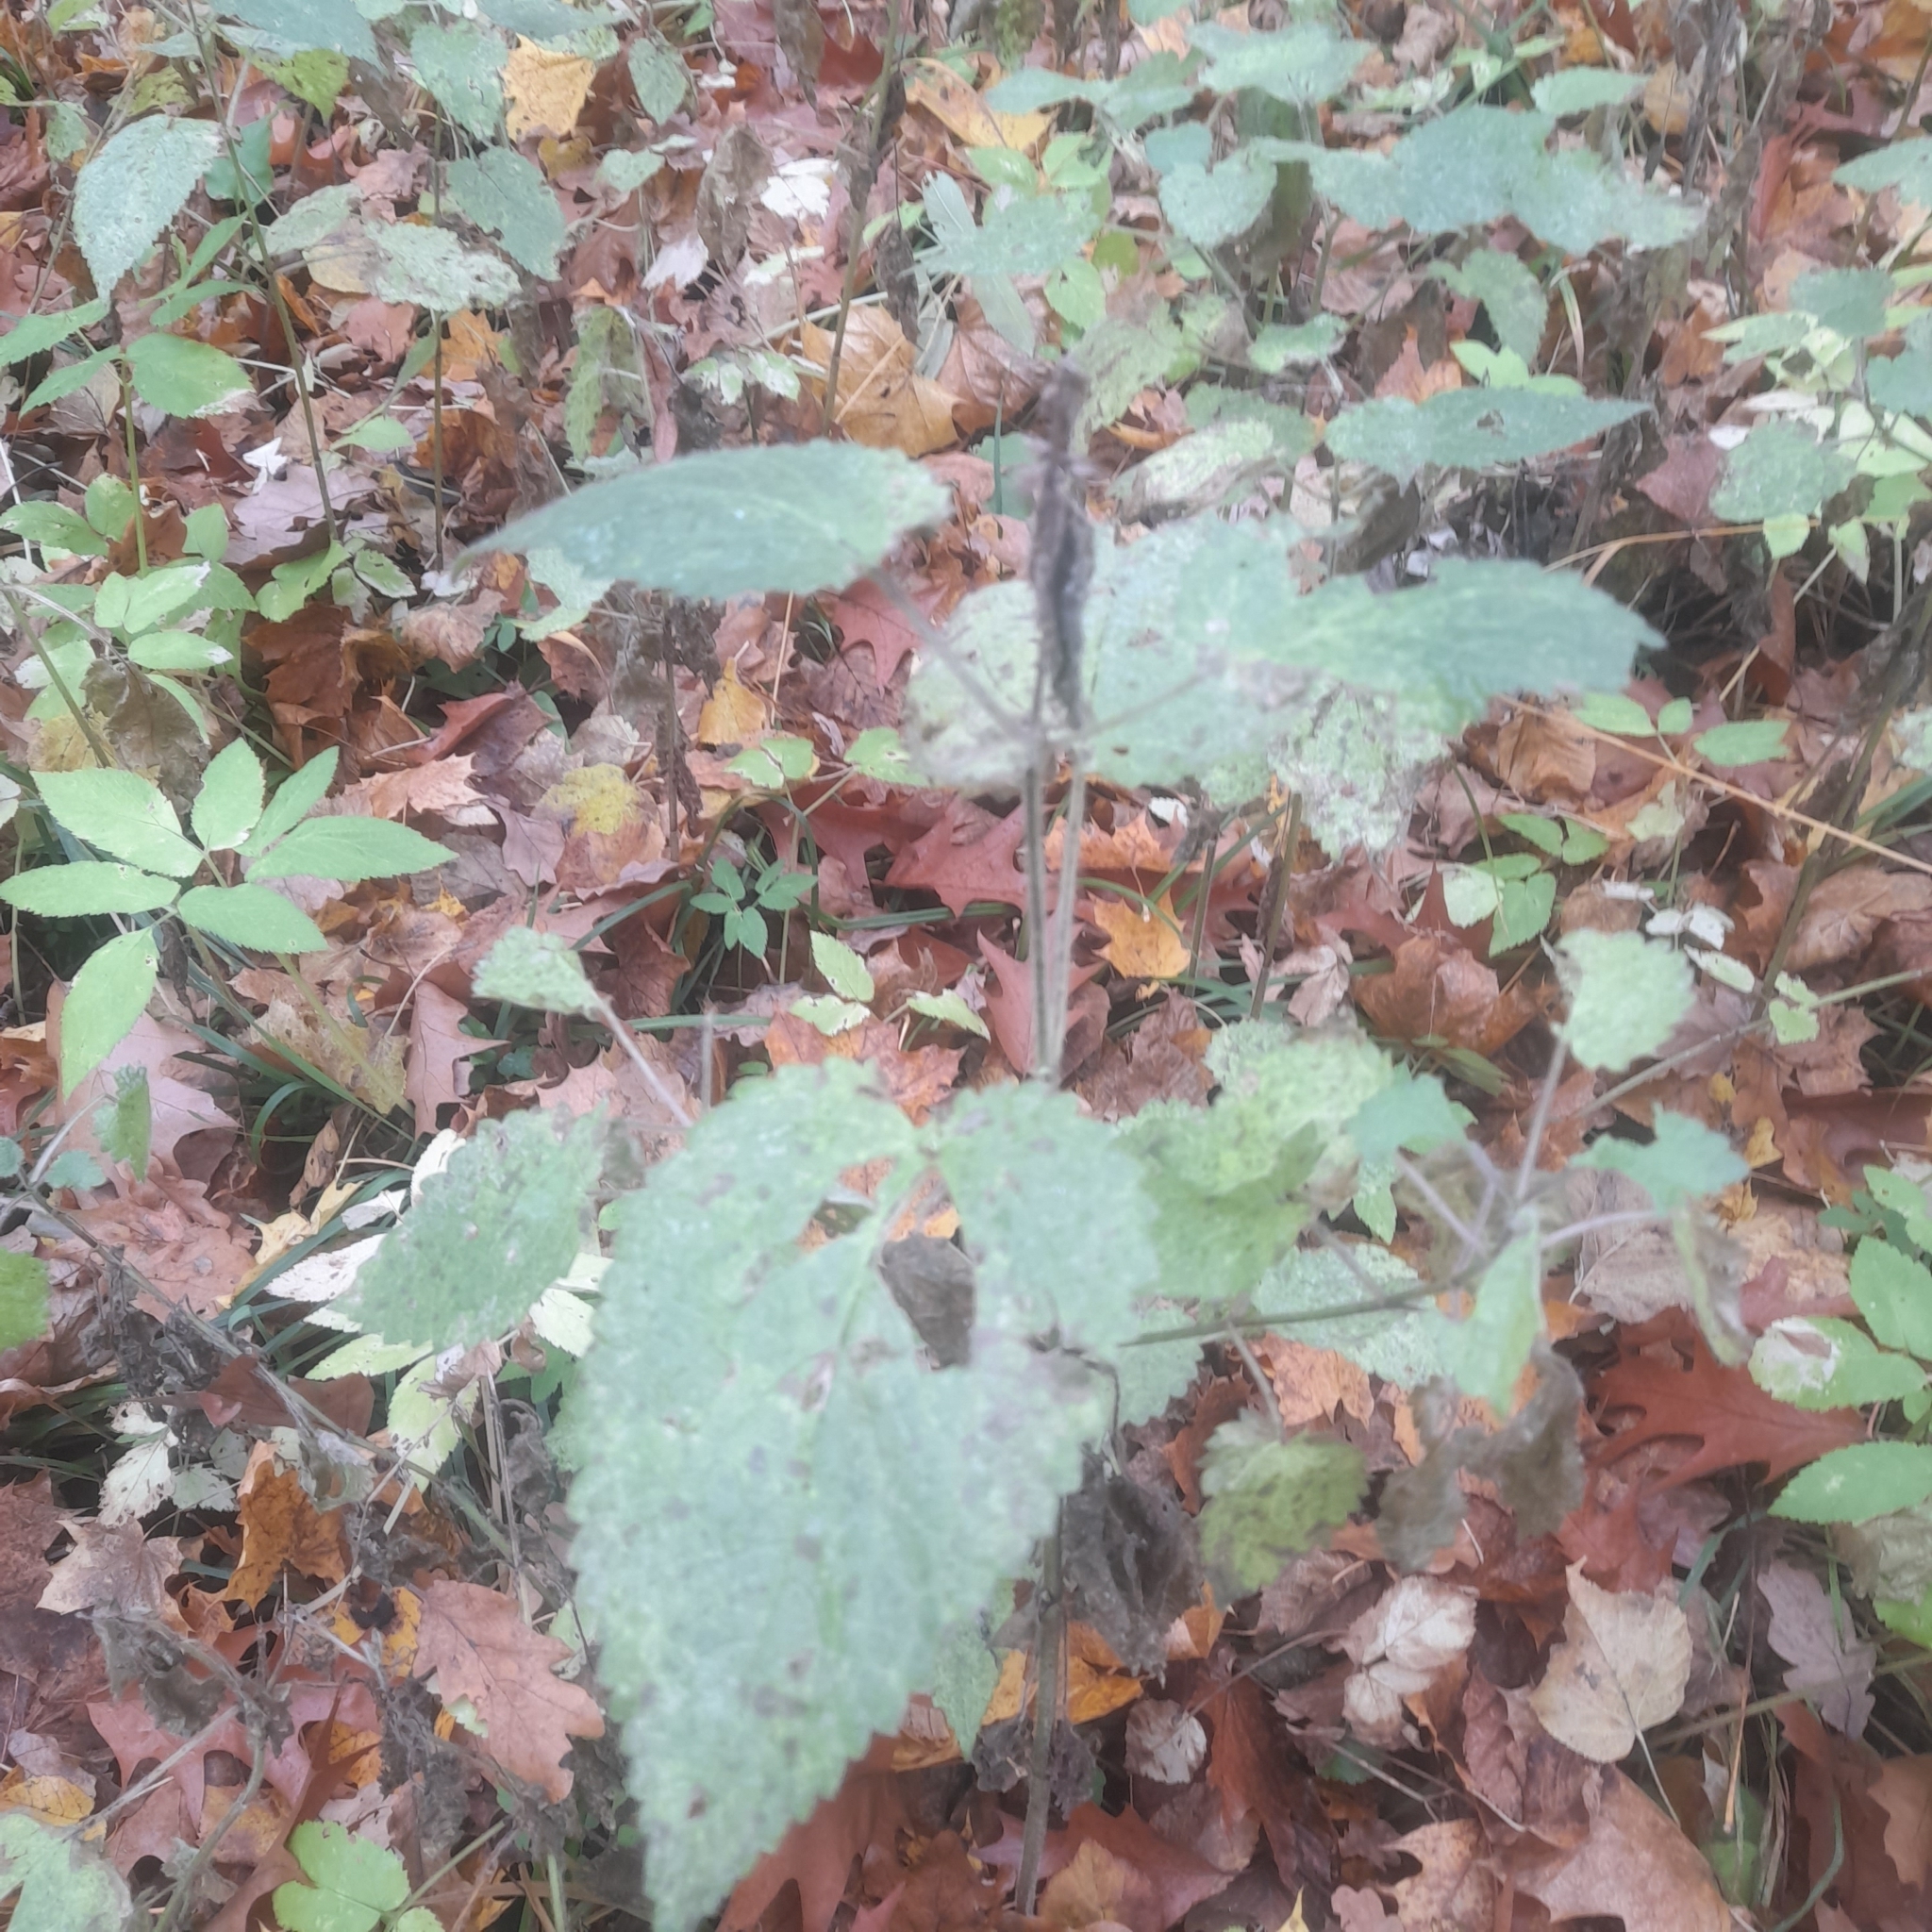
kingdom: Plantae
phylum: Tracheophyta
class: Magnoliopsida
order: Lamiales
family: Lamiaceae
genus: Stachys
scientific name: Stachys sylvatica
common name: Hedge woundwort
